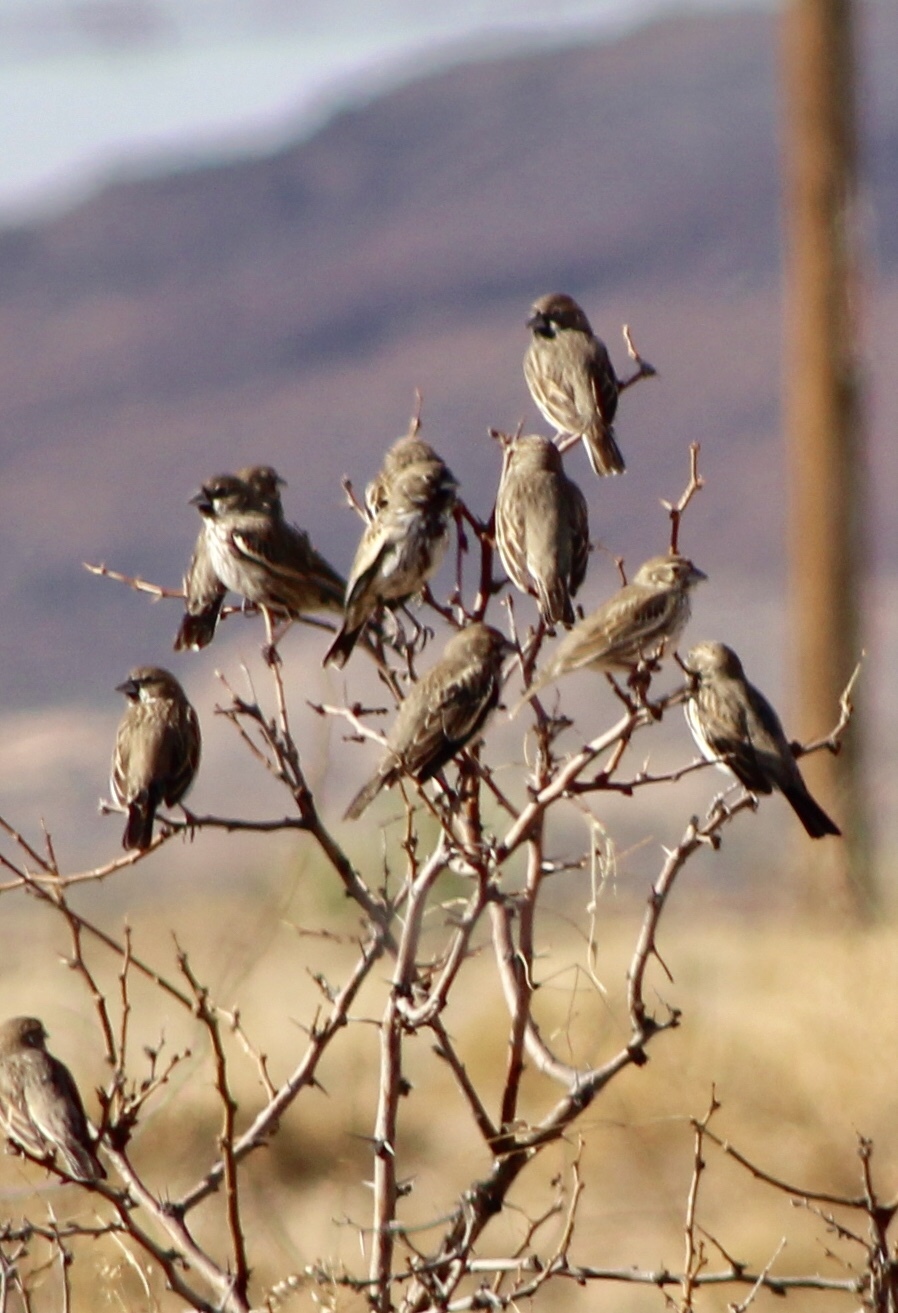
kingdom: Animalia
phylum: Chordata
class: Aves
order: Passeriformes
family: Passerellidae
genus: Calamospiza
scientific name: Calamospiza melanocorys
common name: Lark bunting
